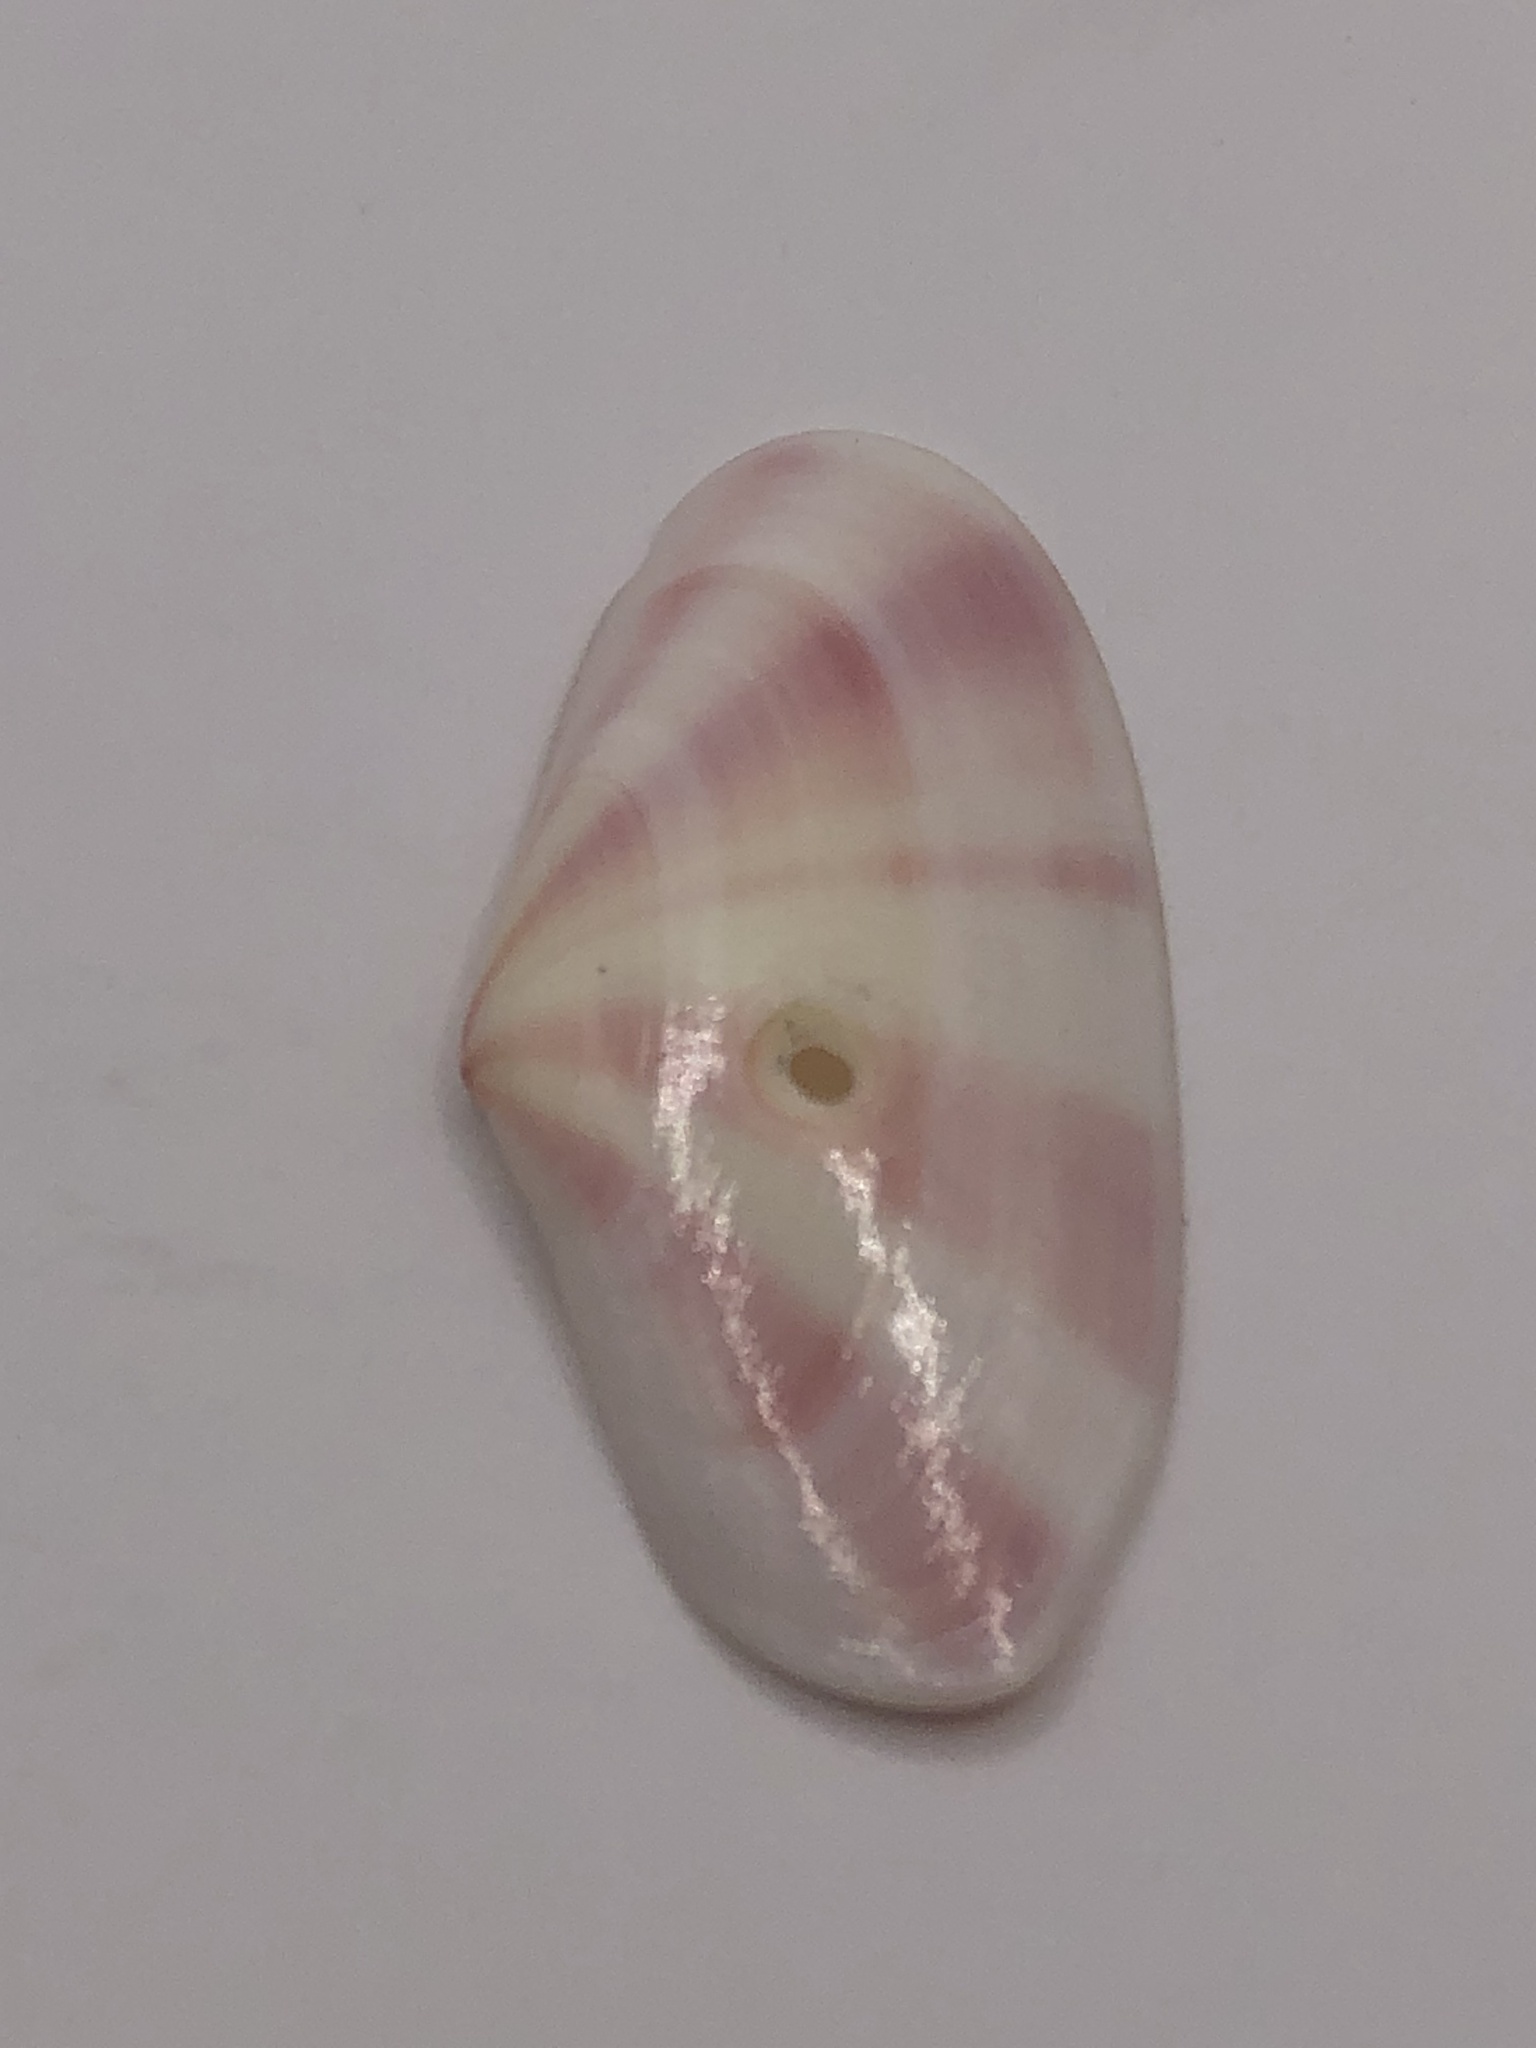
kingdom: Animalia
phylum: Mollusca
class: Bivalvia
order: Cardiida
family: Tellinidae
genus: Tellina
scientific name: Tellina radiata
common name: Sunrise tellin
